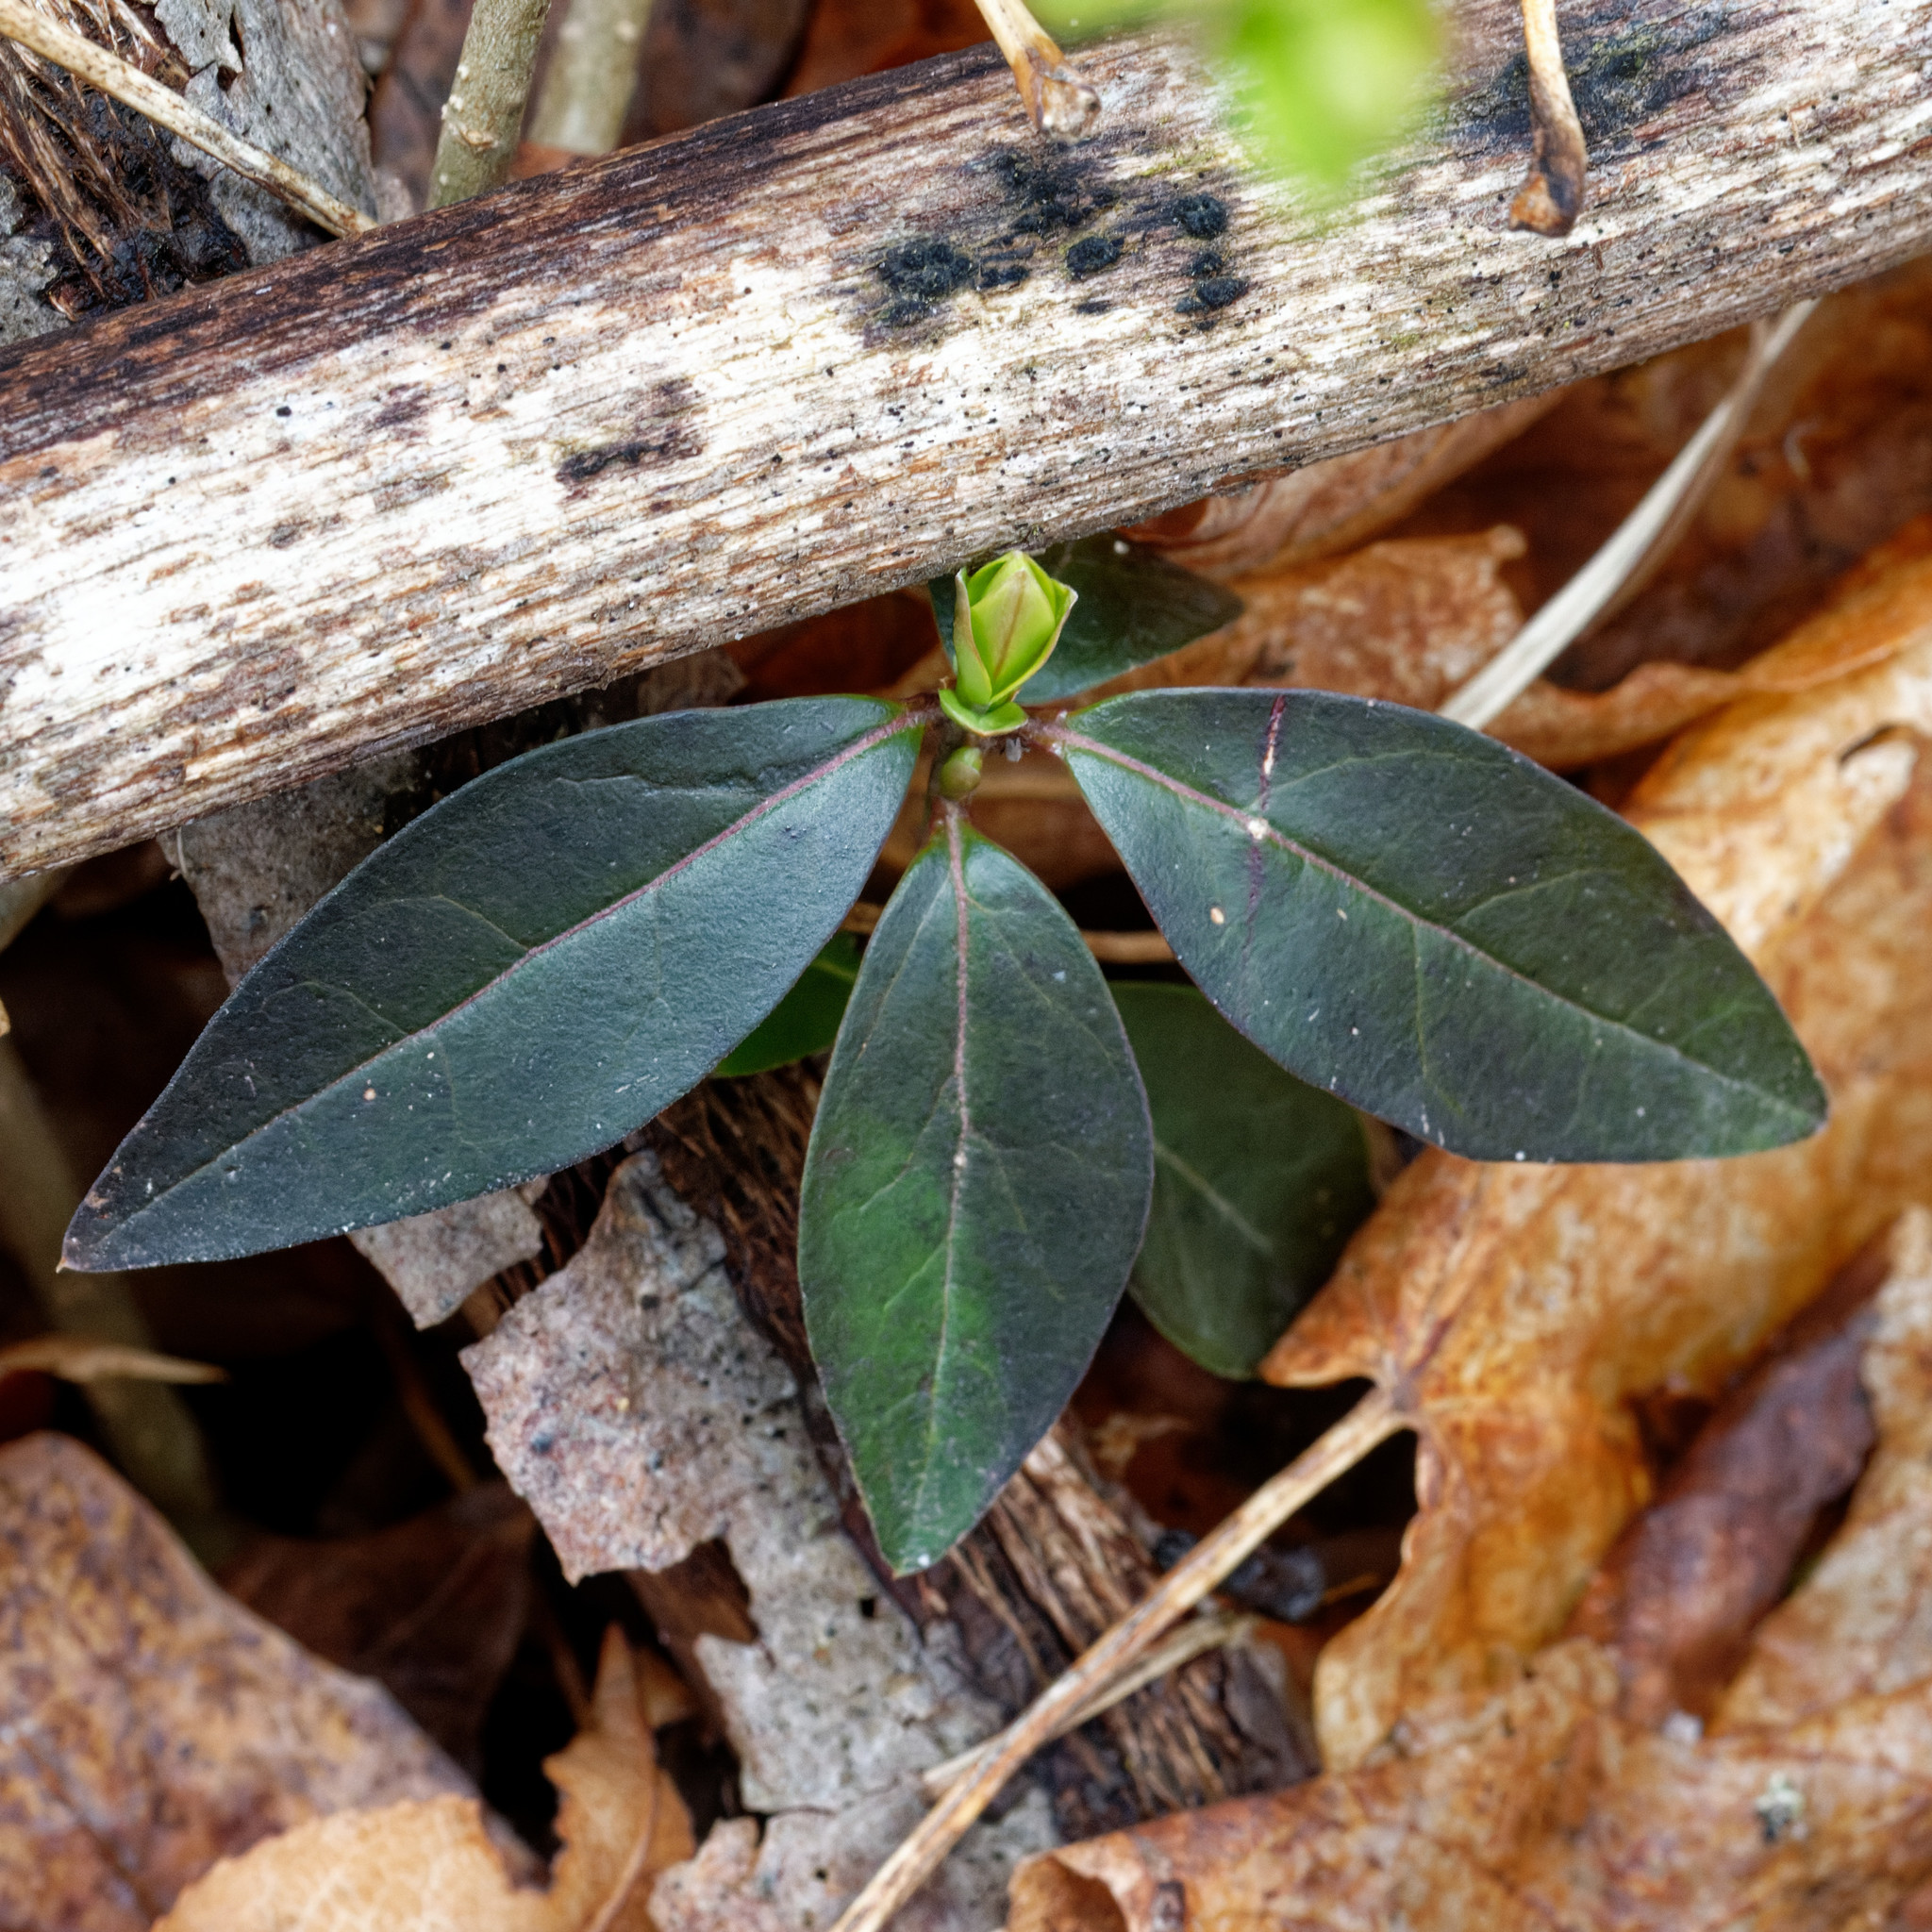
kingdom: Plantae
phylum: Tracheophyta
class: Magnoliopsida
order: Gentianales
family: Apocynaceae
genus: Vinca
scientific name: Vinca minor
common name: Lesser periwinkle
